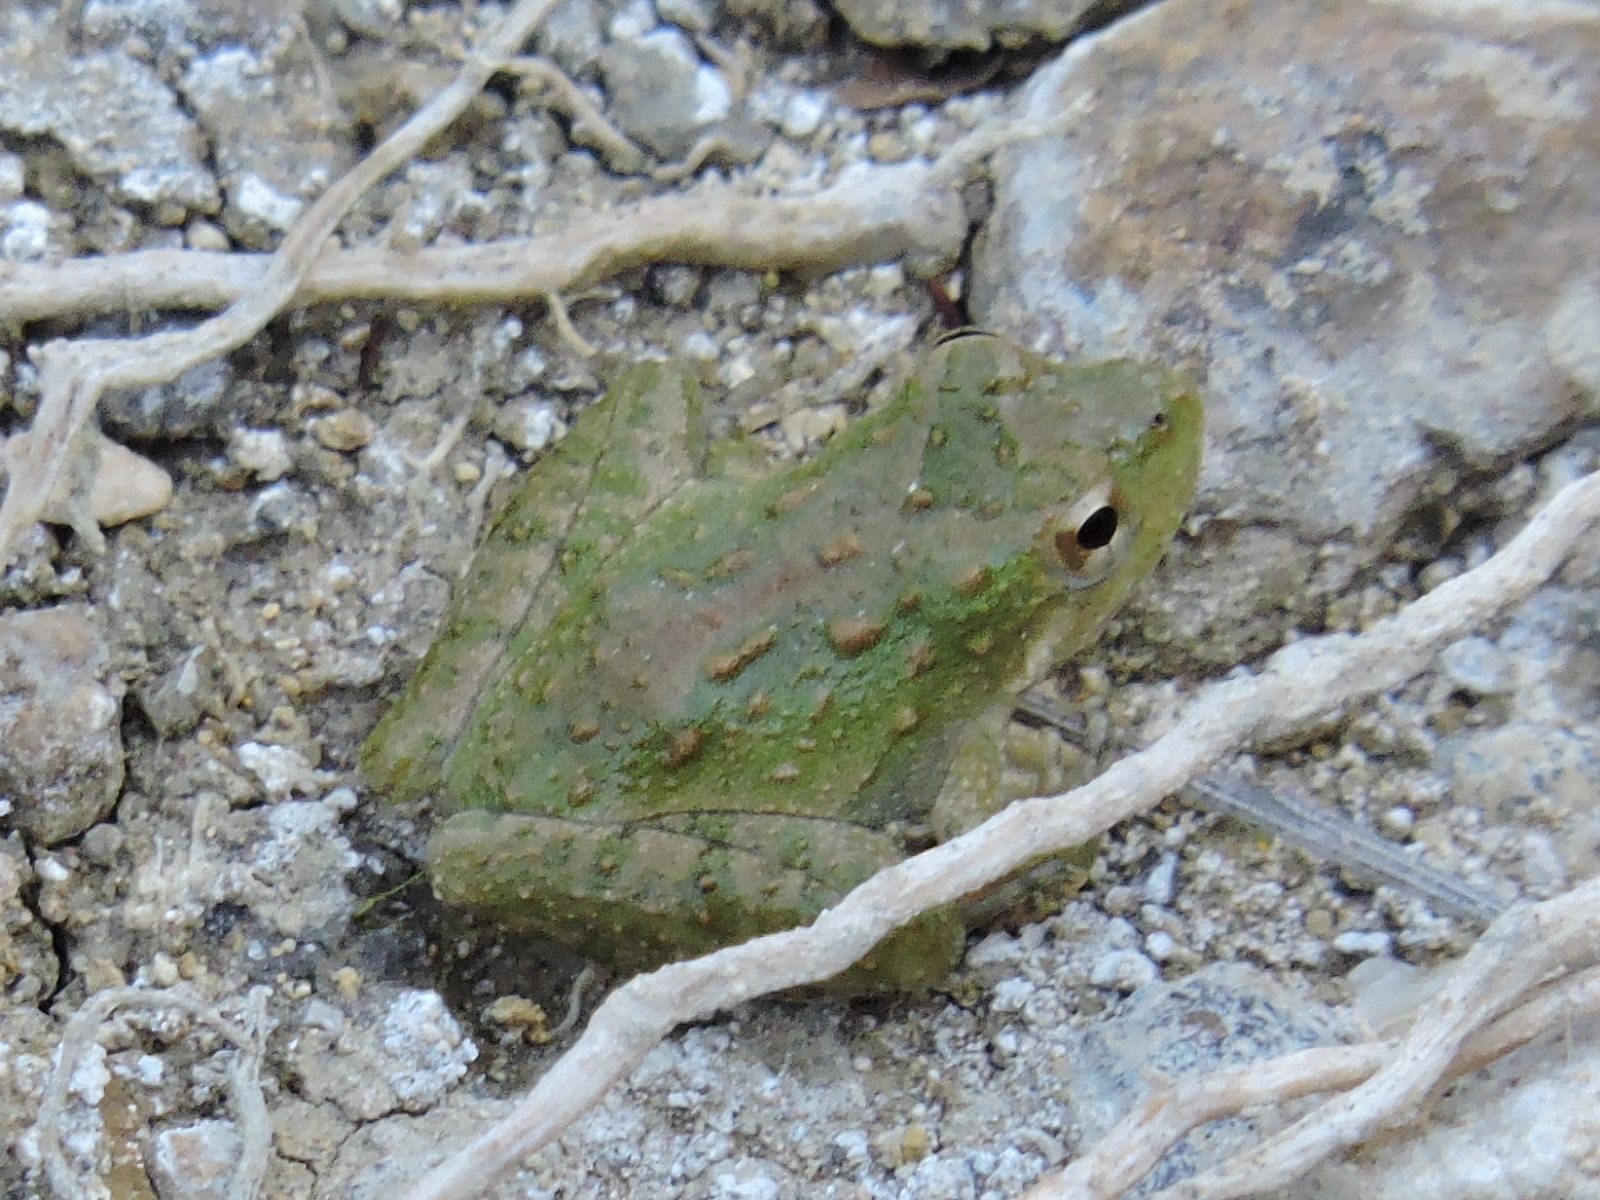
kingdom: Animalia
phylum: Chordata
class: Amphibia
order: Anura
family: Hylidae
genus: Acris
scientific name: Acris blanchardi
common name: Blanchard's cricket frog
